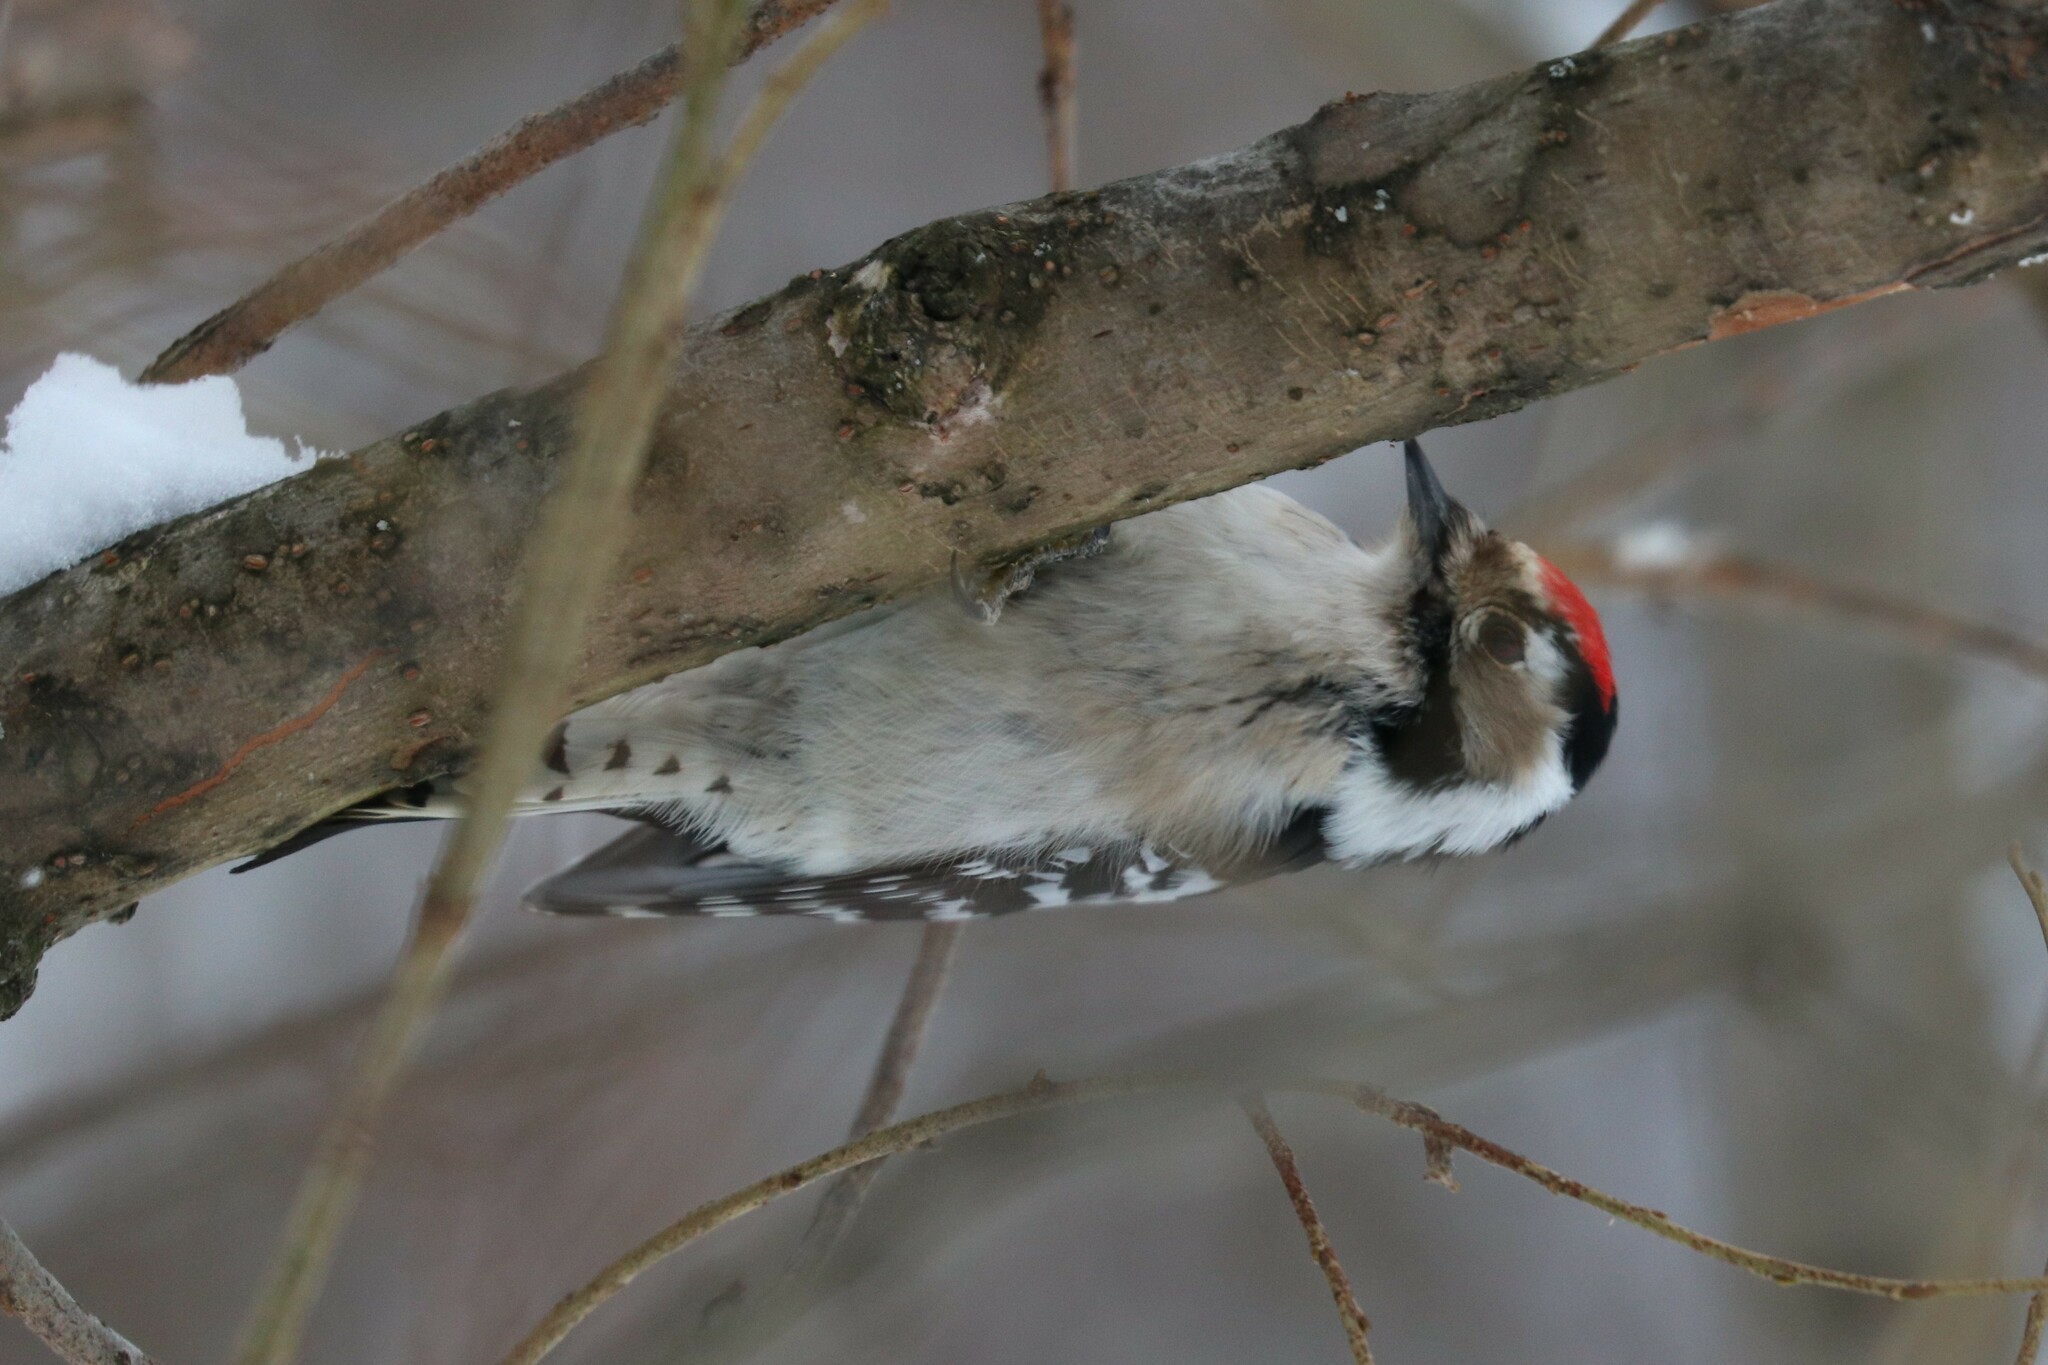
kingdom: Animalia
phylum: Chordata
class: Aves
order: Piciformes
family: Picidae
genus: Dryobates
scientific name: Dryobates minor
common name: Lesser spotted woodpecker
